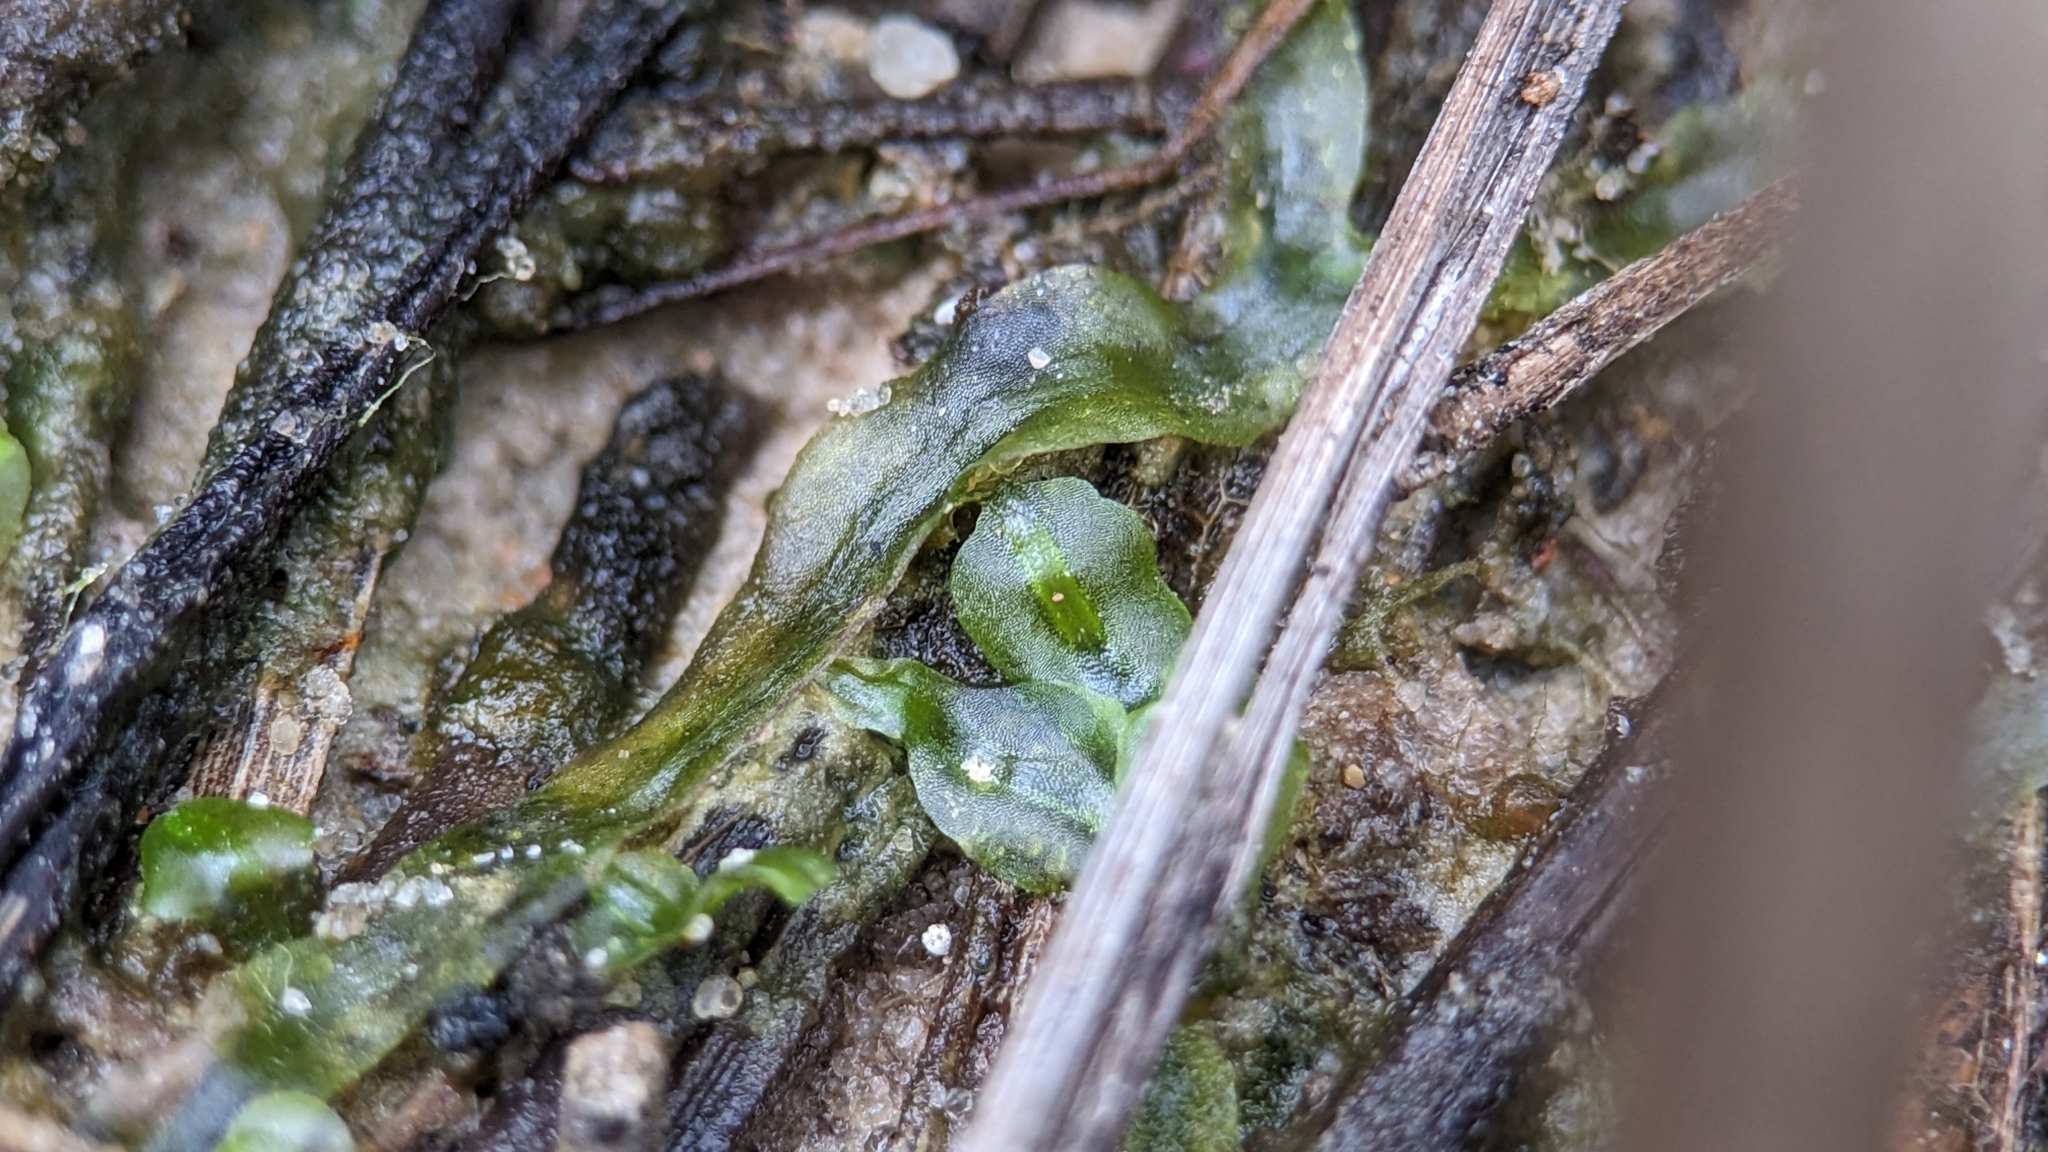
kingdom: Plantae
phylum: Marchantiophyta
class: Jungermanniopsida
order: Pallaviciniales
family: Pallaviciniaceae
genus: Pallavicinia
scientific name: Pallavicinia lyellii
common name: Veilwort
